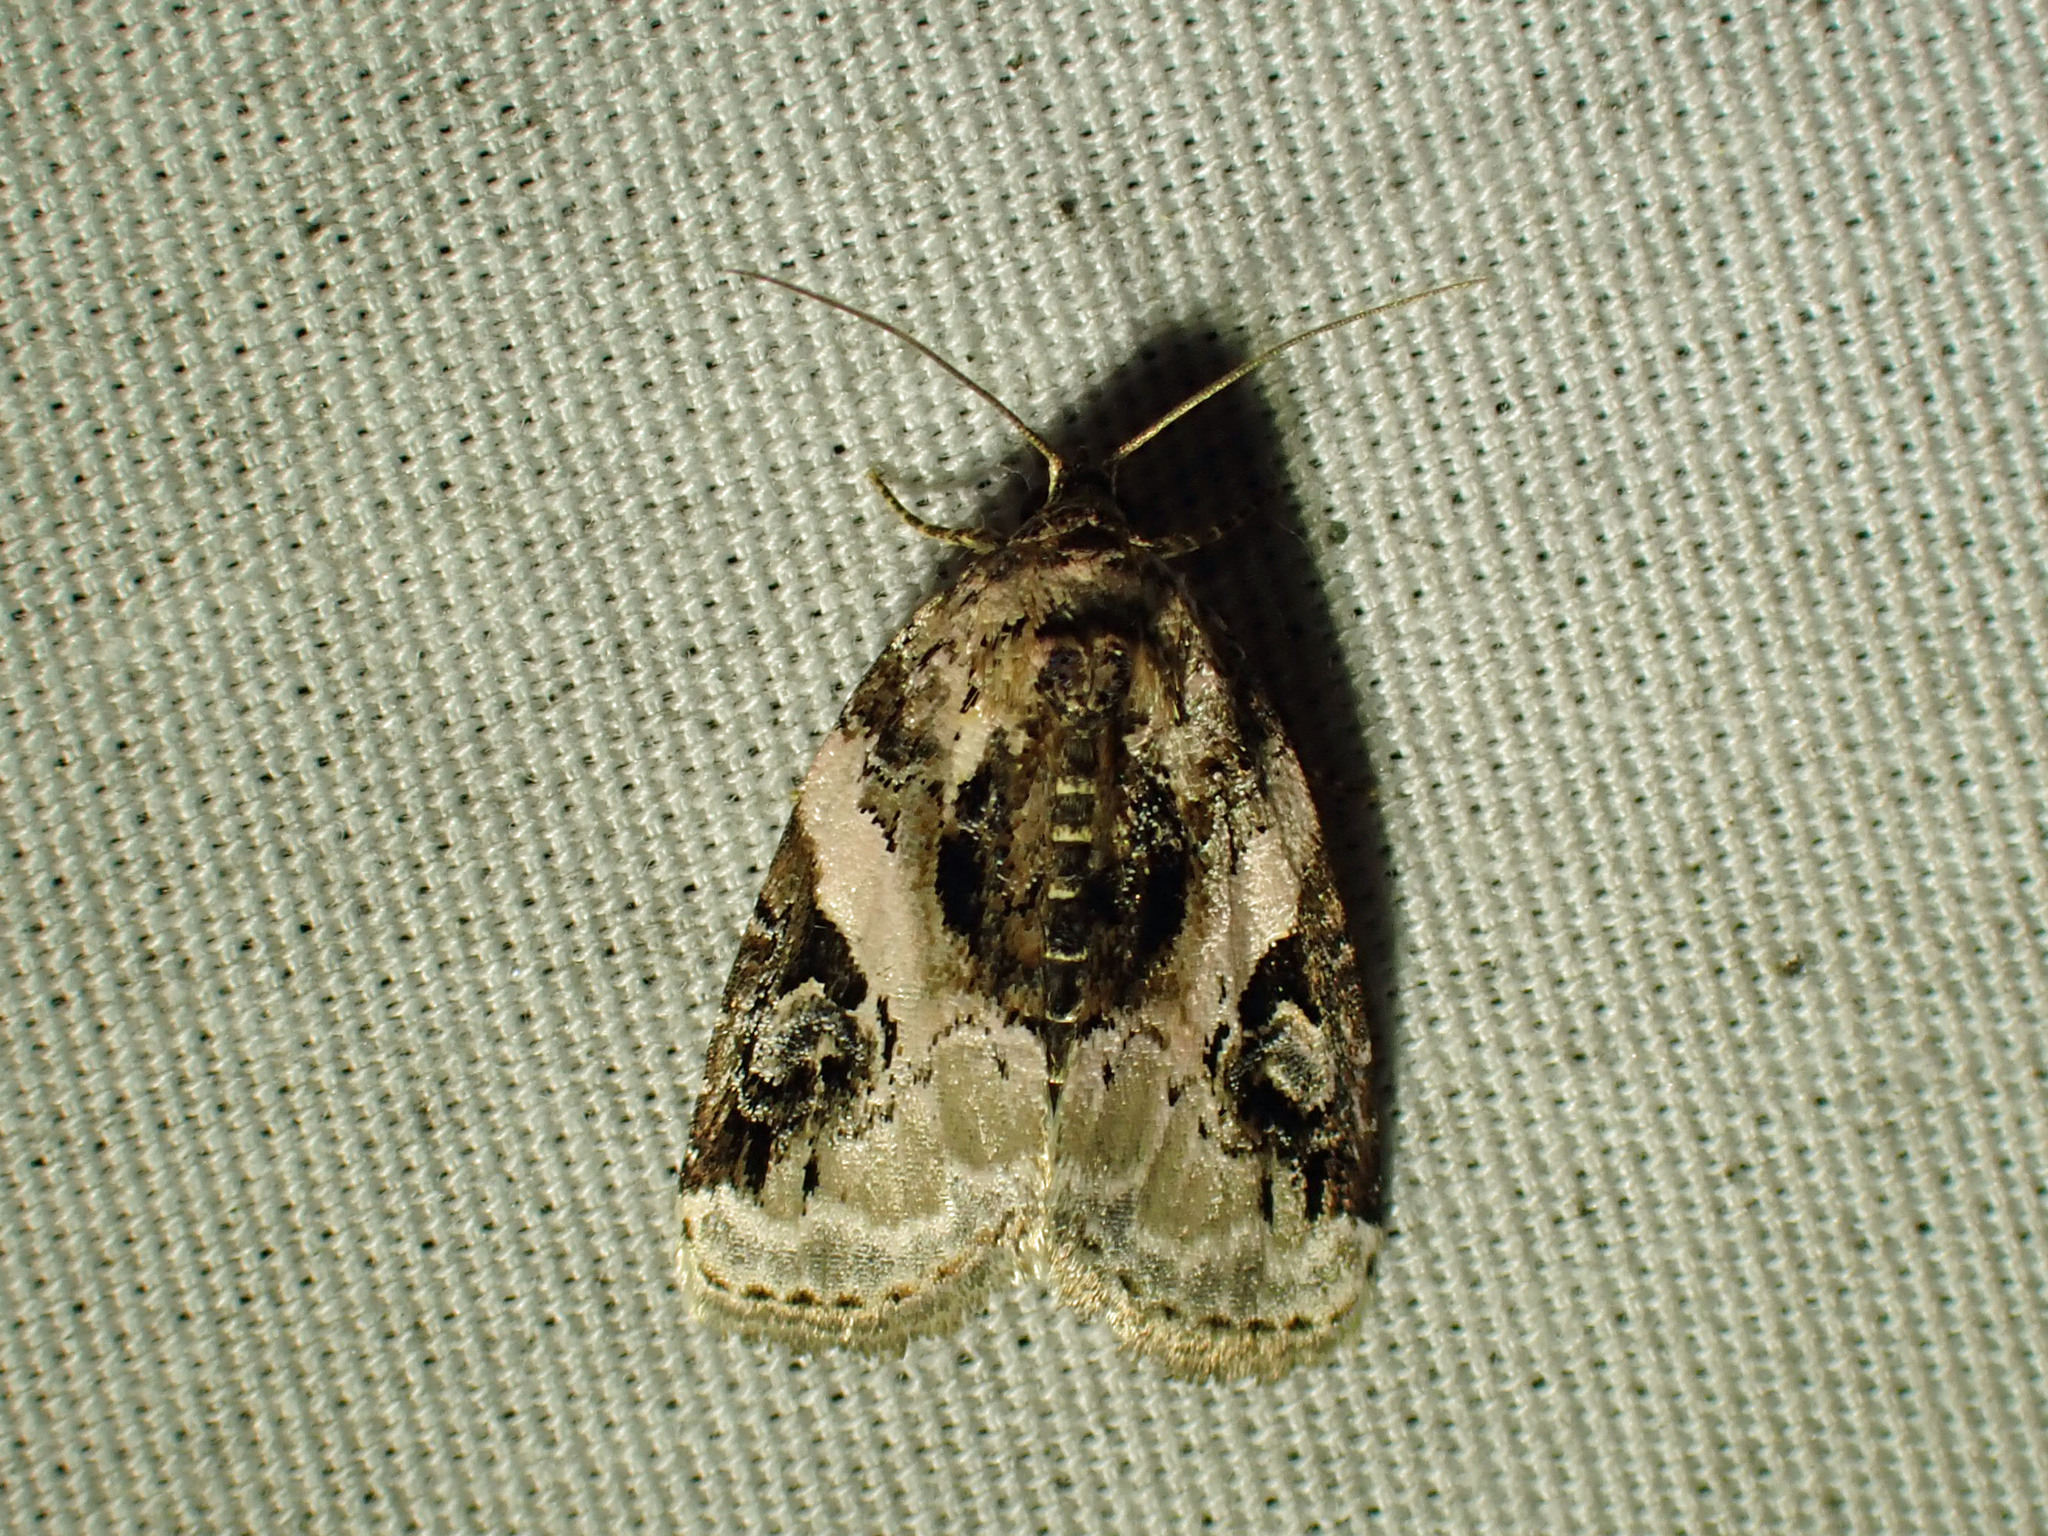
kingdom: Animalia
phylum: Arthropoda
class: Insecta
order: Lepidoptera
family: Noctuidae
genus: Pseudeustrotia
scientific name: Pseudeustrotia carneola
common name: Pink-barred lithacodia moth
